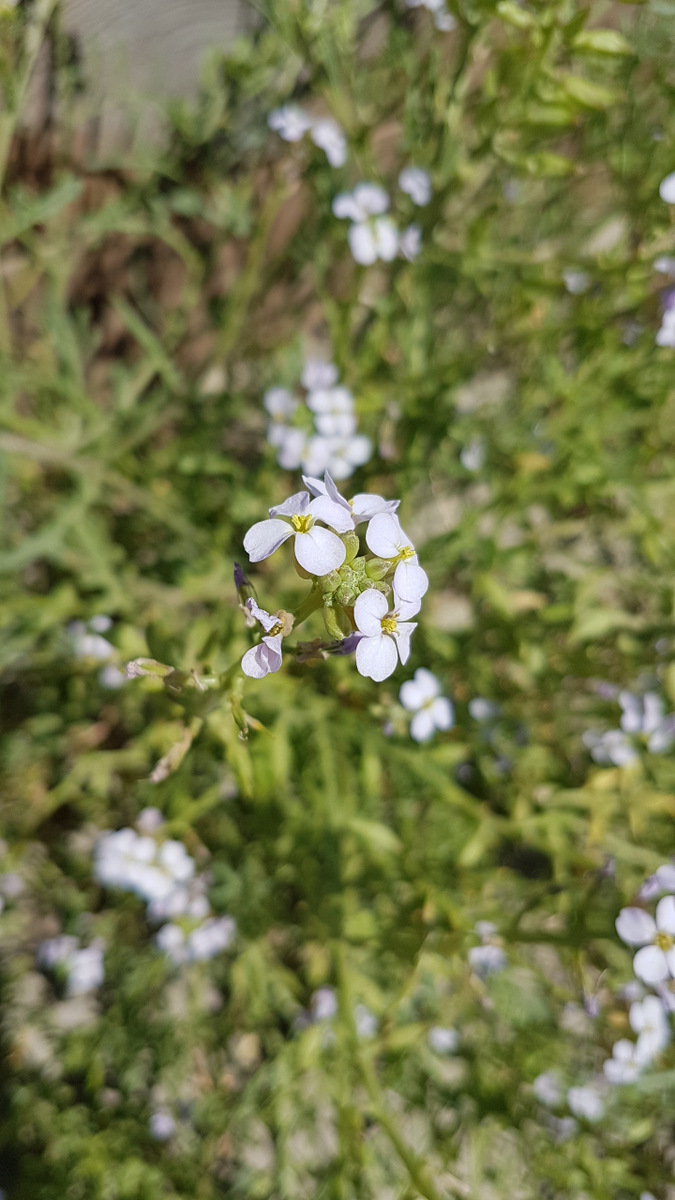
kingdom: Plantae
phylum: Tracheophyta
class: Magnoliopsida
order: Brassicales
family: Brassicaceae
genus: Cakile
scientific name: Cakile maritima
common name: Sea rocket
